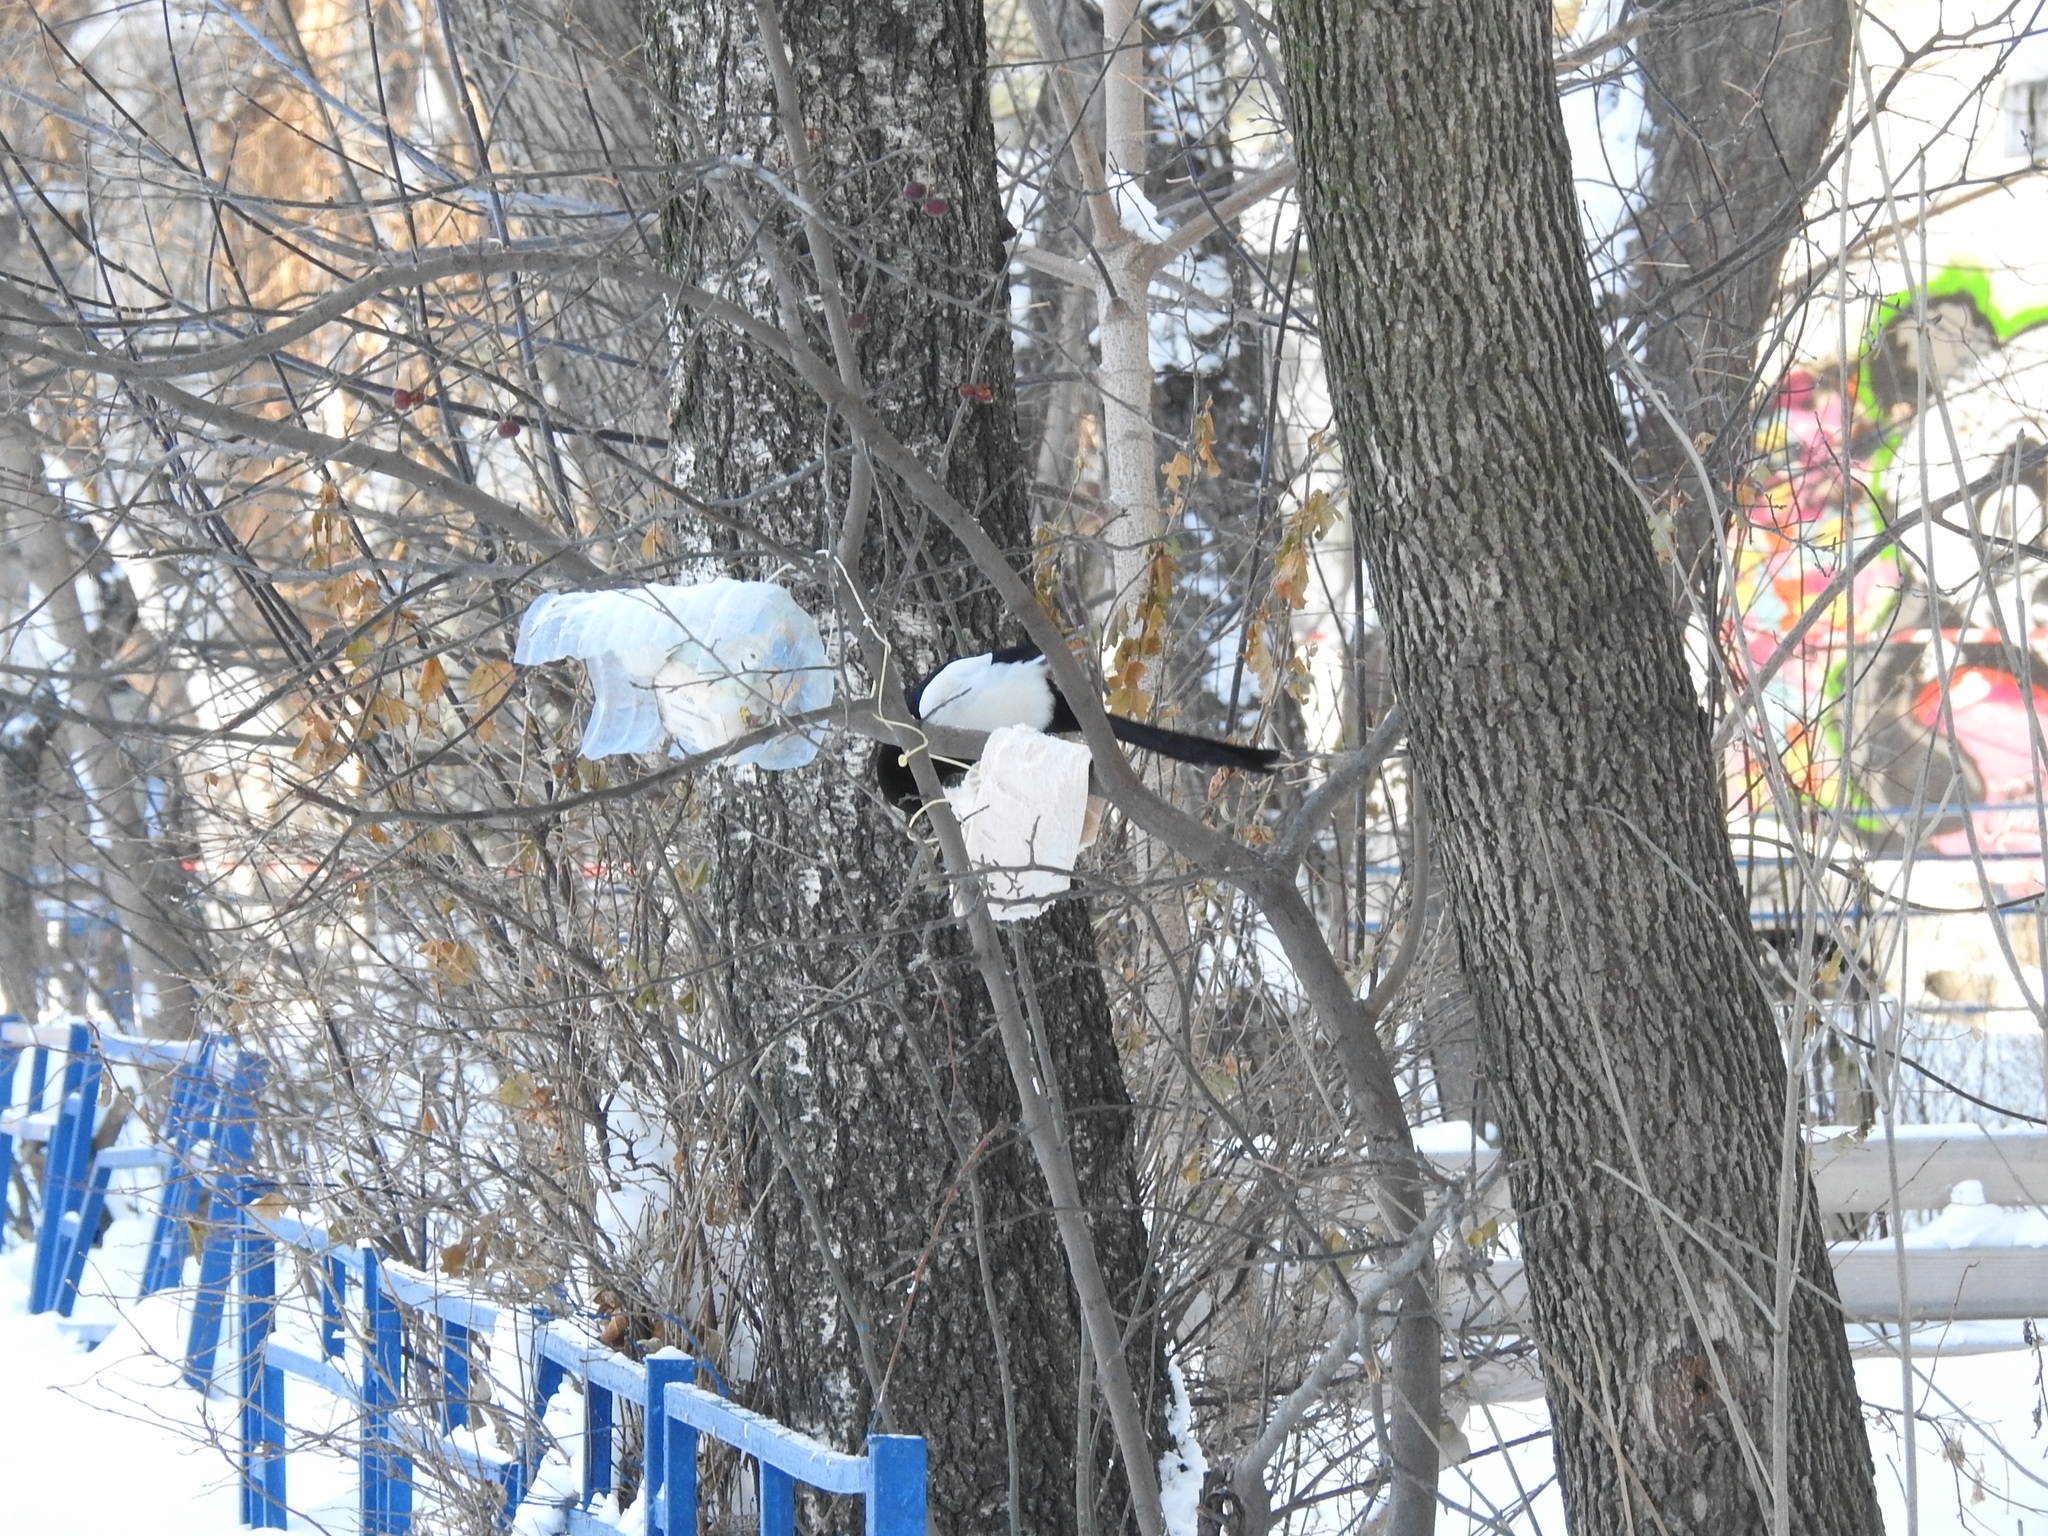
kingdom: Animalia
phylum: Chordata
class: Aves
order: Passeriformes
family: Corvidae
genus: Pica
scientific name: Pica pica
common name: Eurasian magpie
